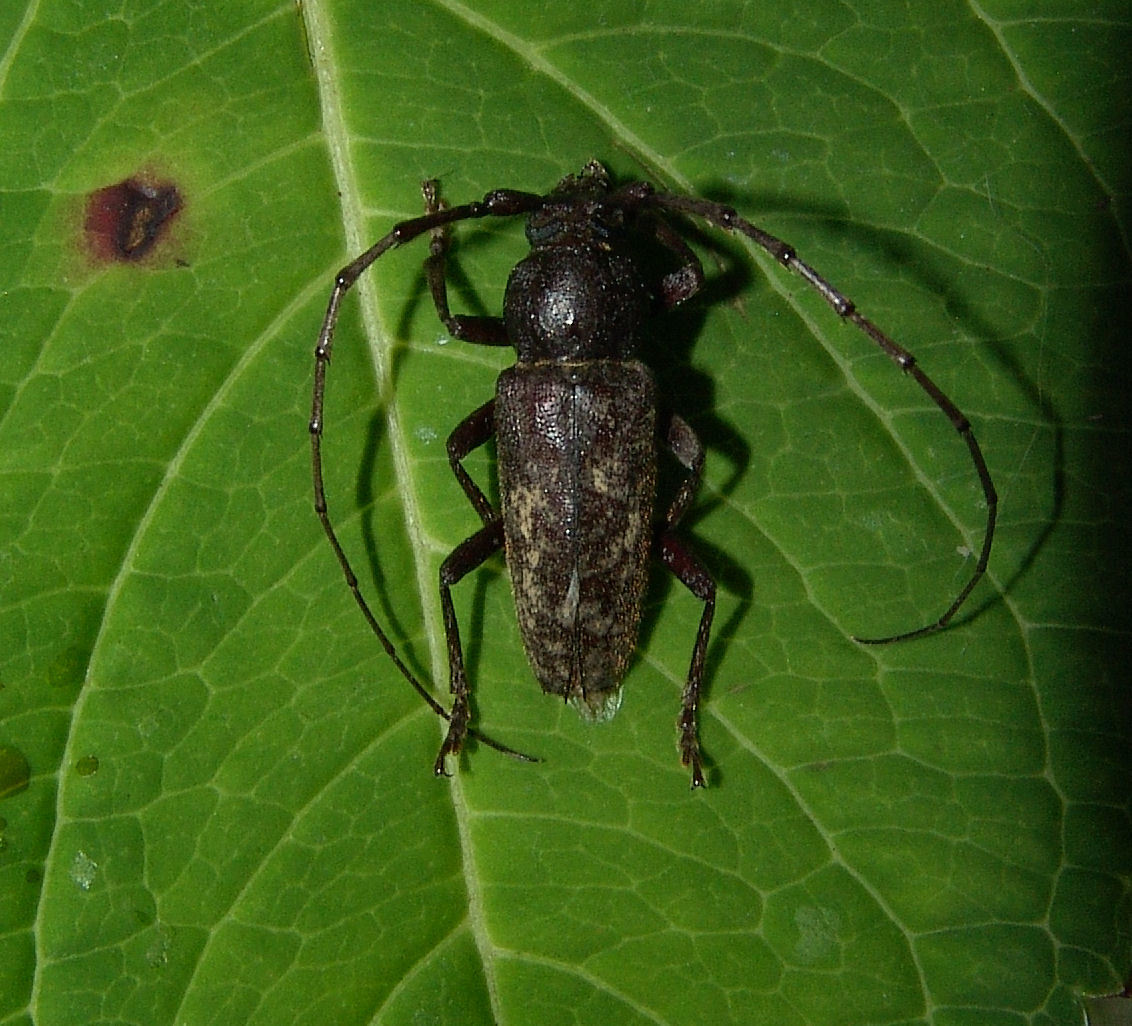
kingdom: Animalia
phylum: Arthropoda
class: Insecta
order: Coleoptera
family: Cerambycidae
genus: Enaphalodes
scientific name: Enaphalodes atomarius
